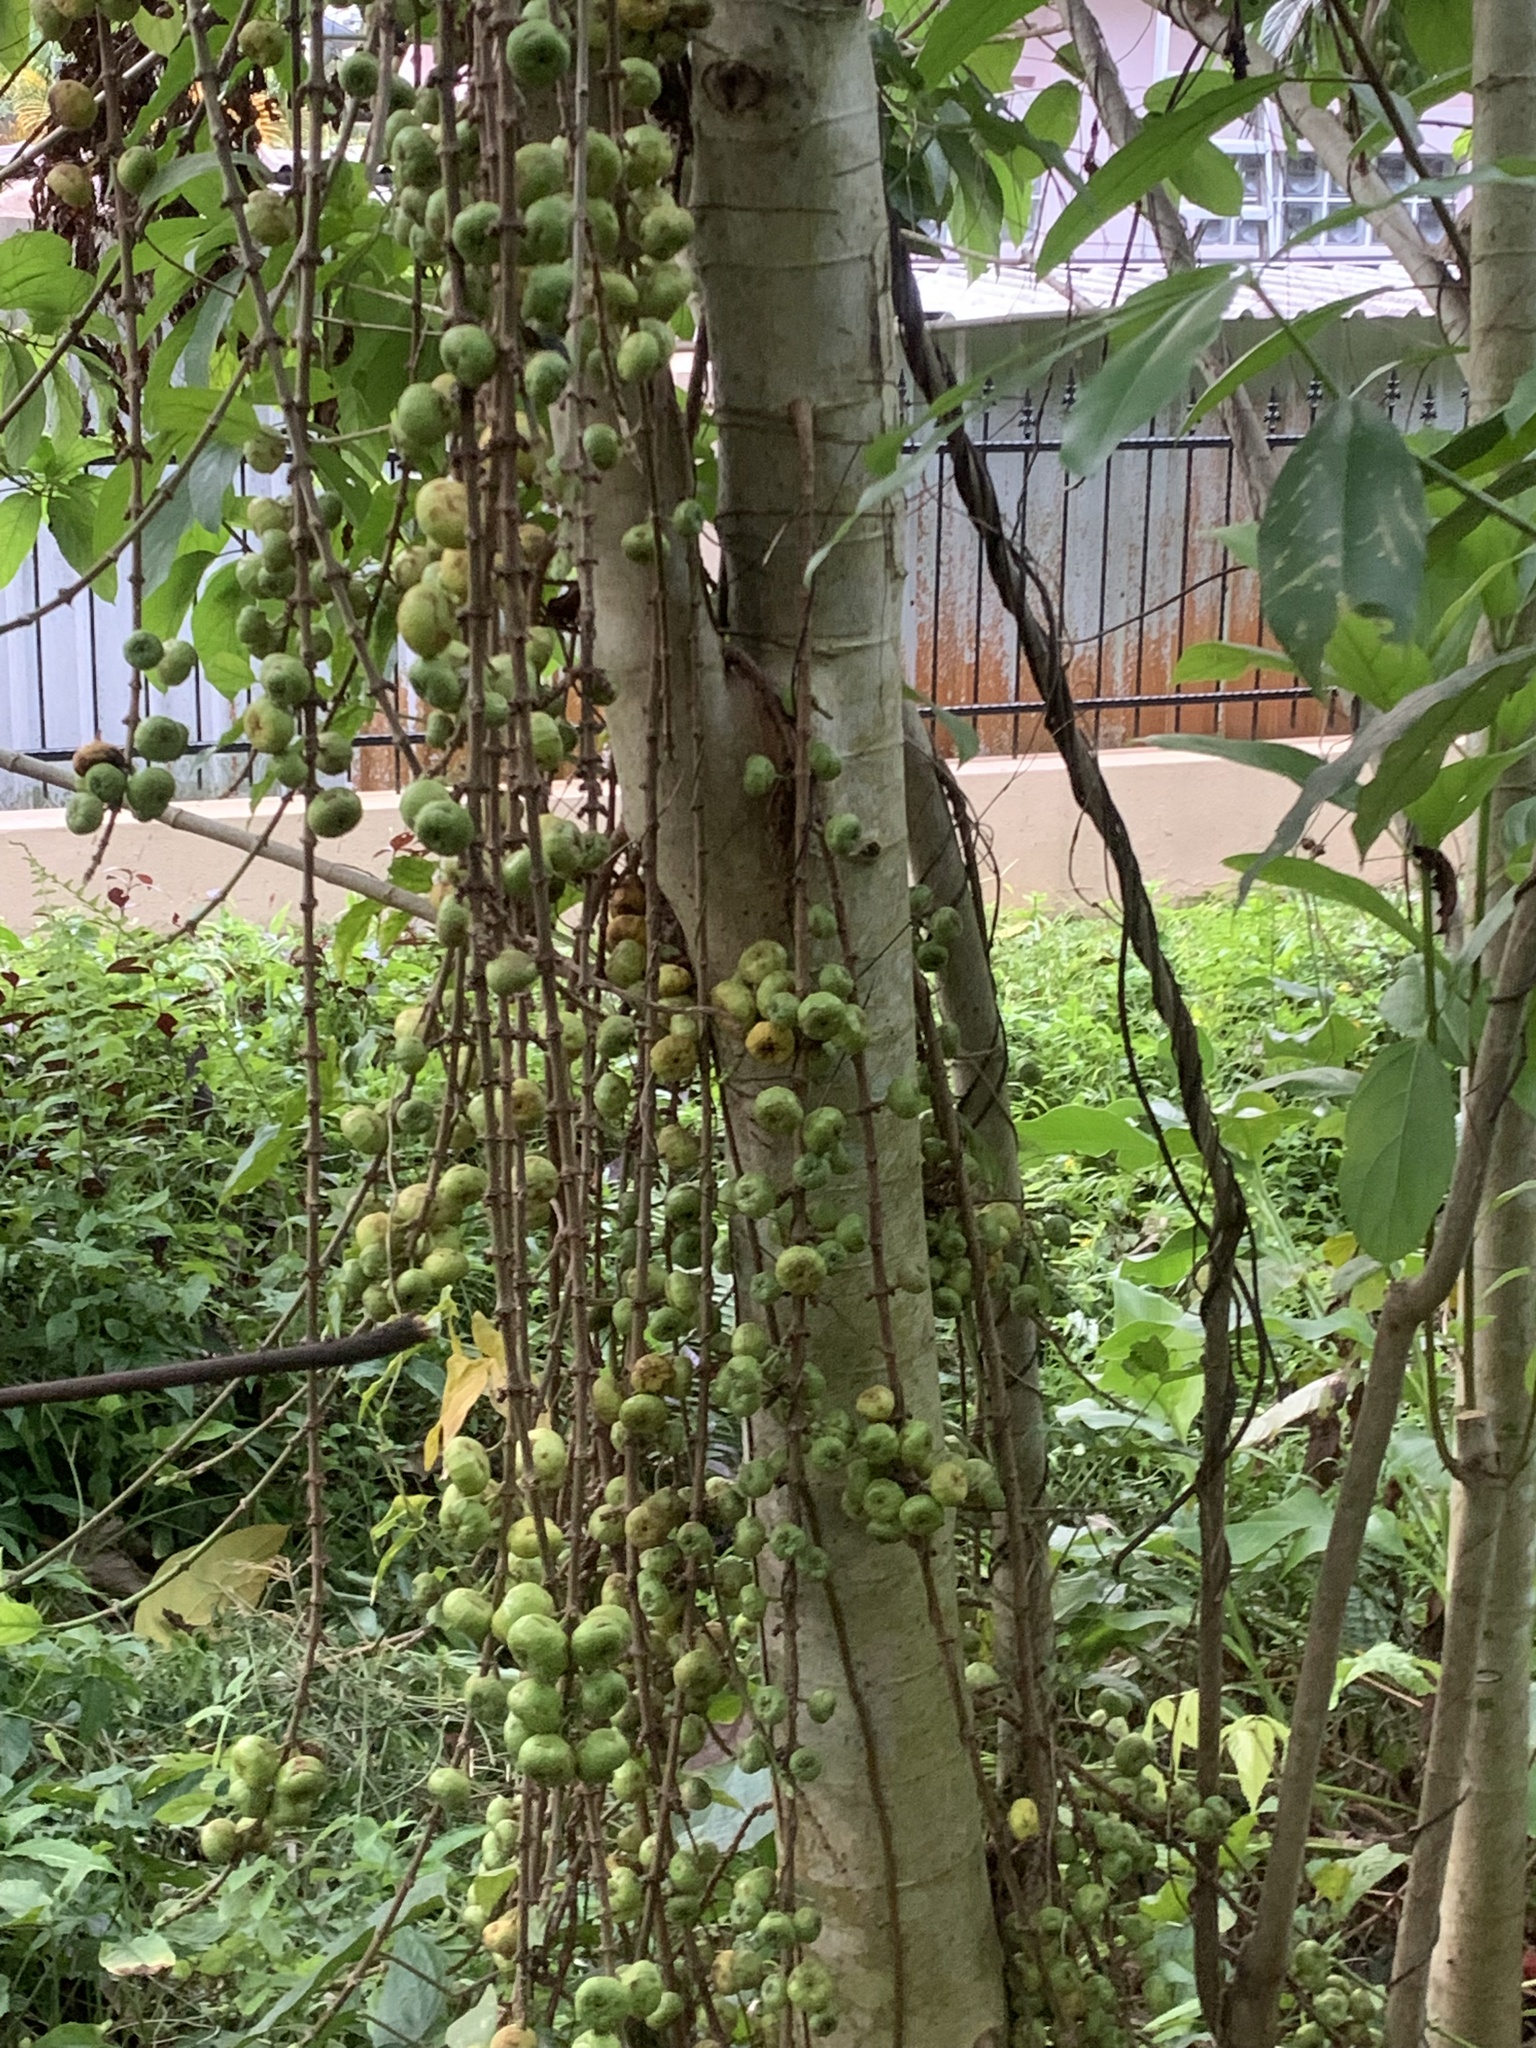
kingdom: Plantae
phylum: Tracheophyta
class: Magnoliopsida
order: Rosales
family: Moraceae
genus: Ficus
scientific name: Ficus hispida
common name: Hairy fig
